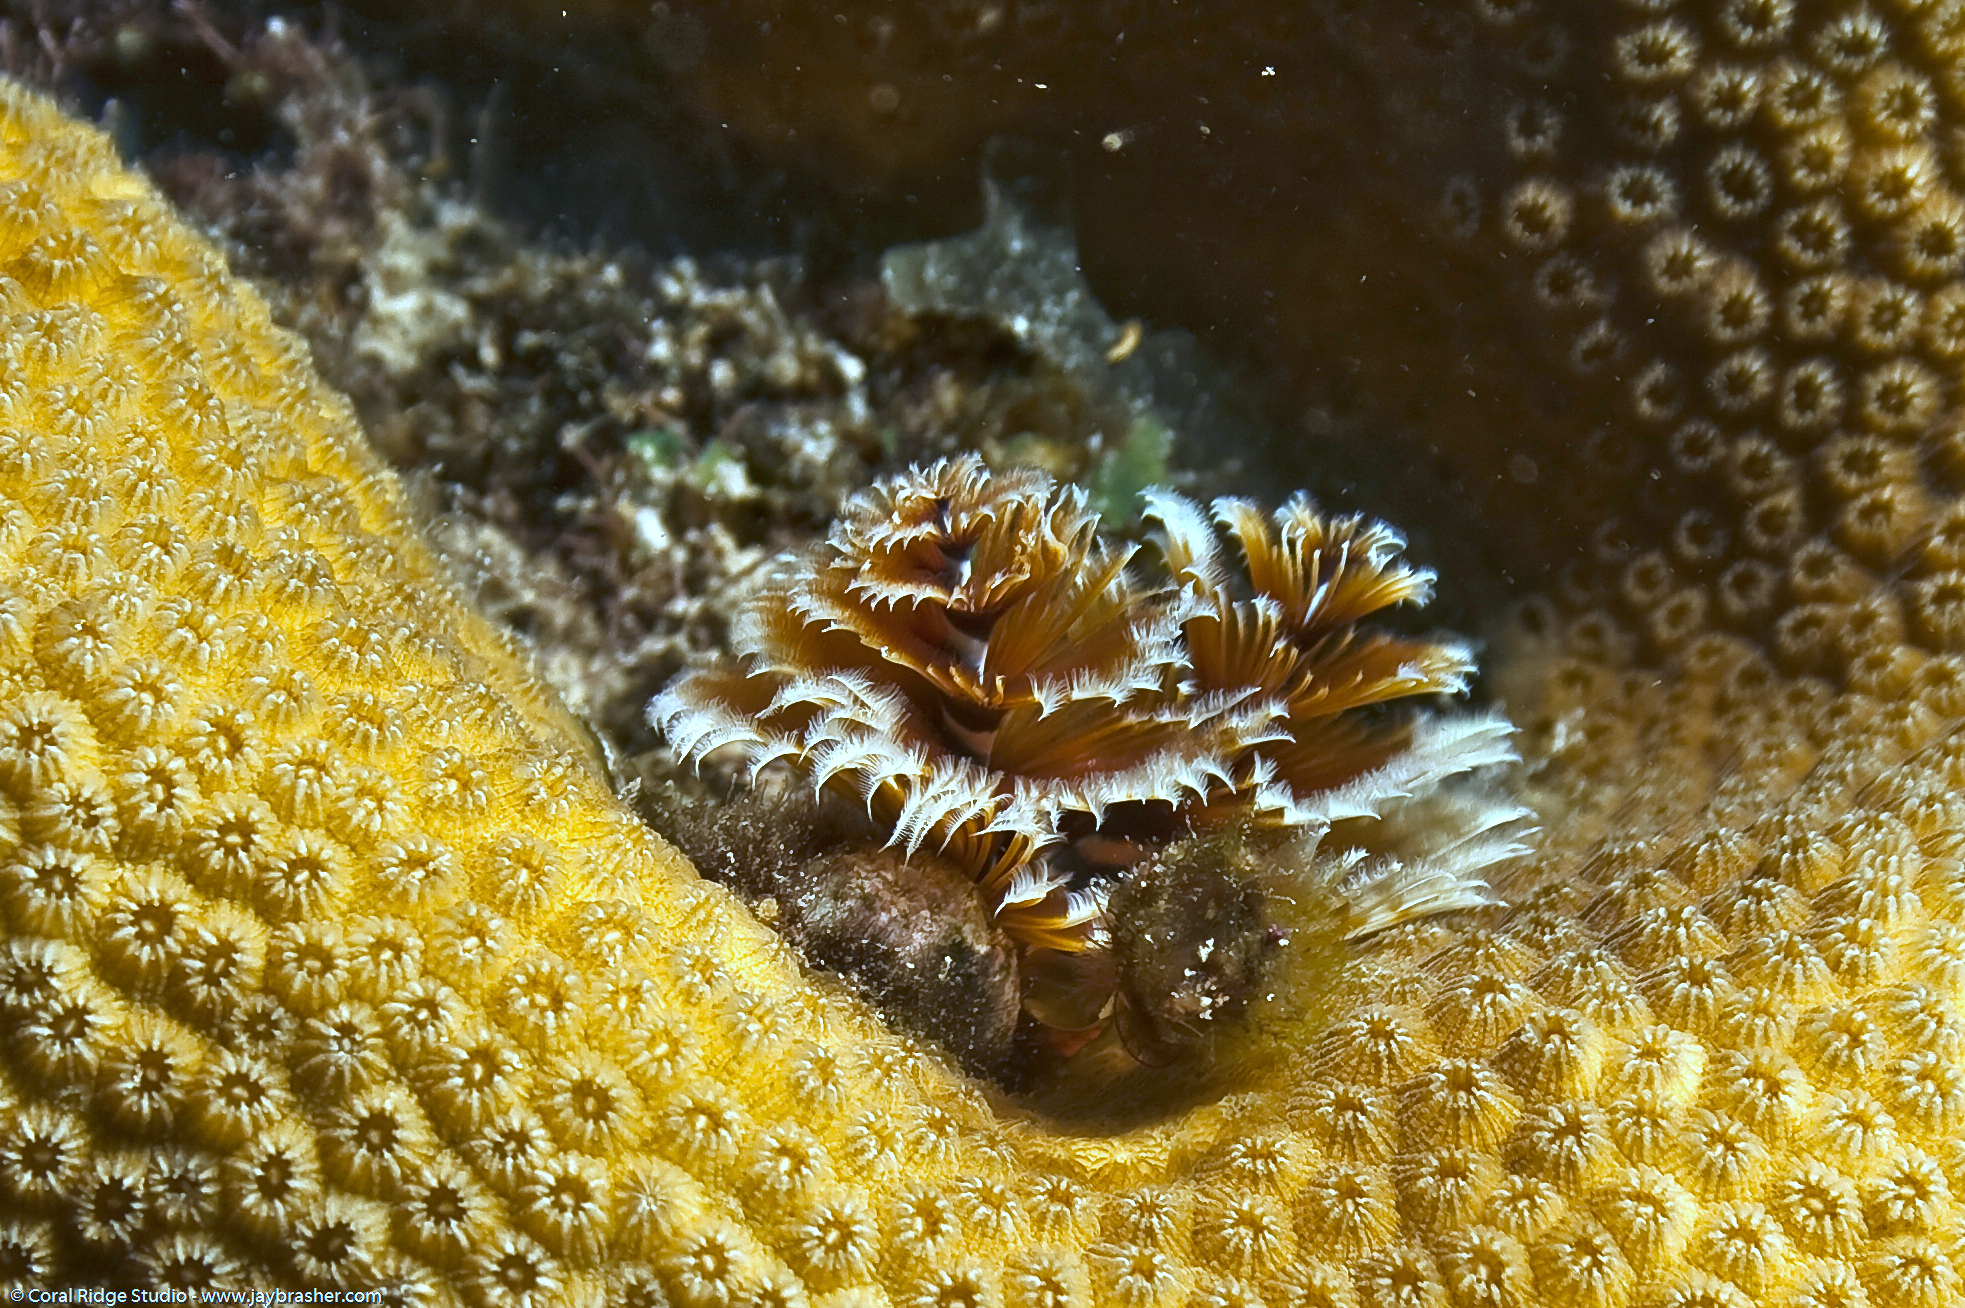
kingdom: Animalia
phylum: Annelida
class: Polychaeta
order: Sabellida
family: Serpulidae
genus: Spirobranchus
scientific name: Spirobranchus giganteus
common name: Christmas tree worm
